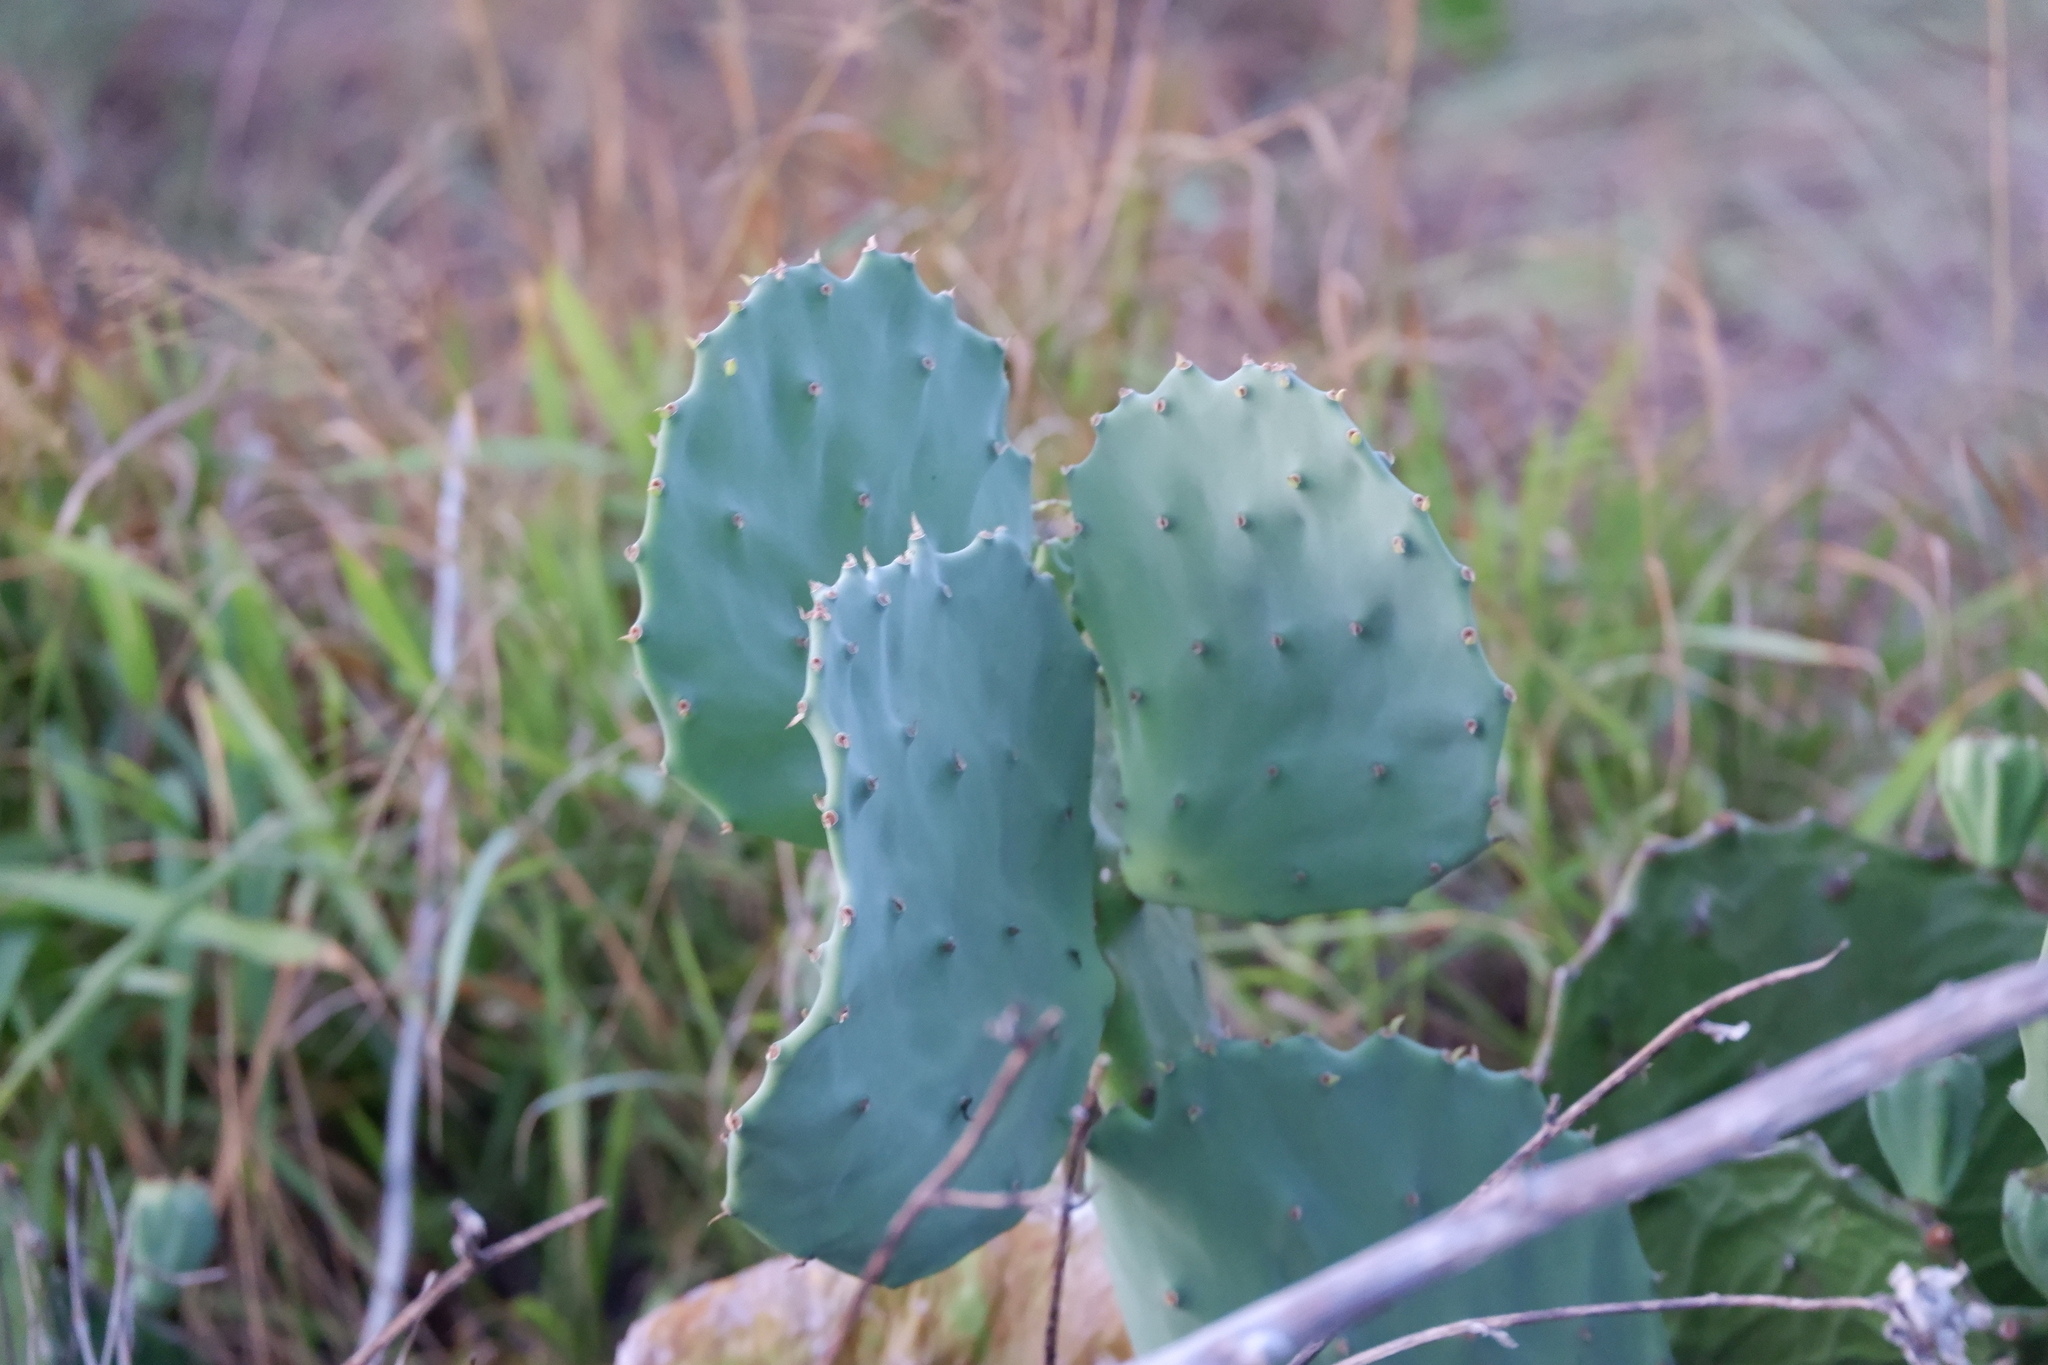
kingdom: Plantae
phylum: Tracheophyta
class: Magnoliopsida
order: Caryophyllales
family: Cactaceae
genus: Opuntia
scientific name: Opuntia dillenii
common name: Sour prickle
